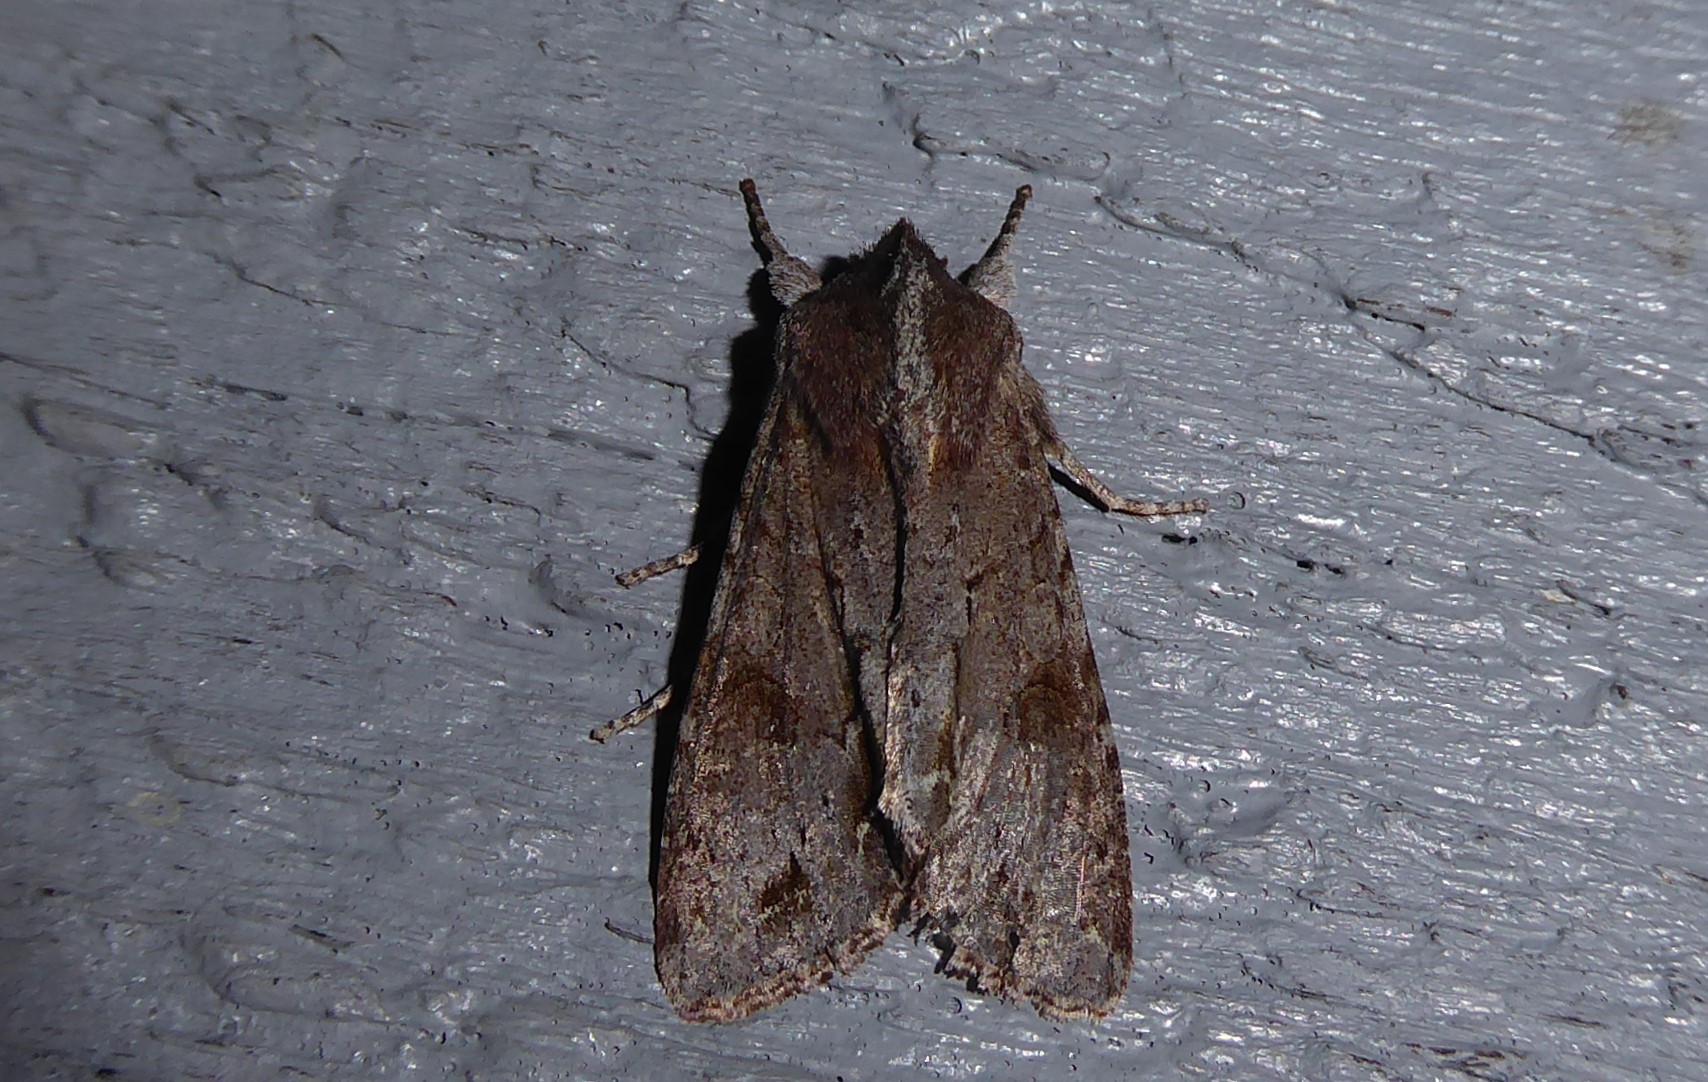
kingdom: Animalia
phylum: Arthropoda
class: Insecta
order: Lepidoptera
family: Noctuidae
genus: Ichneutica
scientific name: Ichneutica
